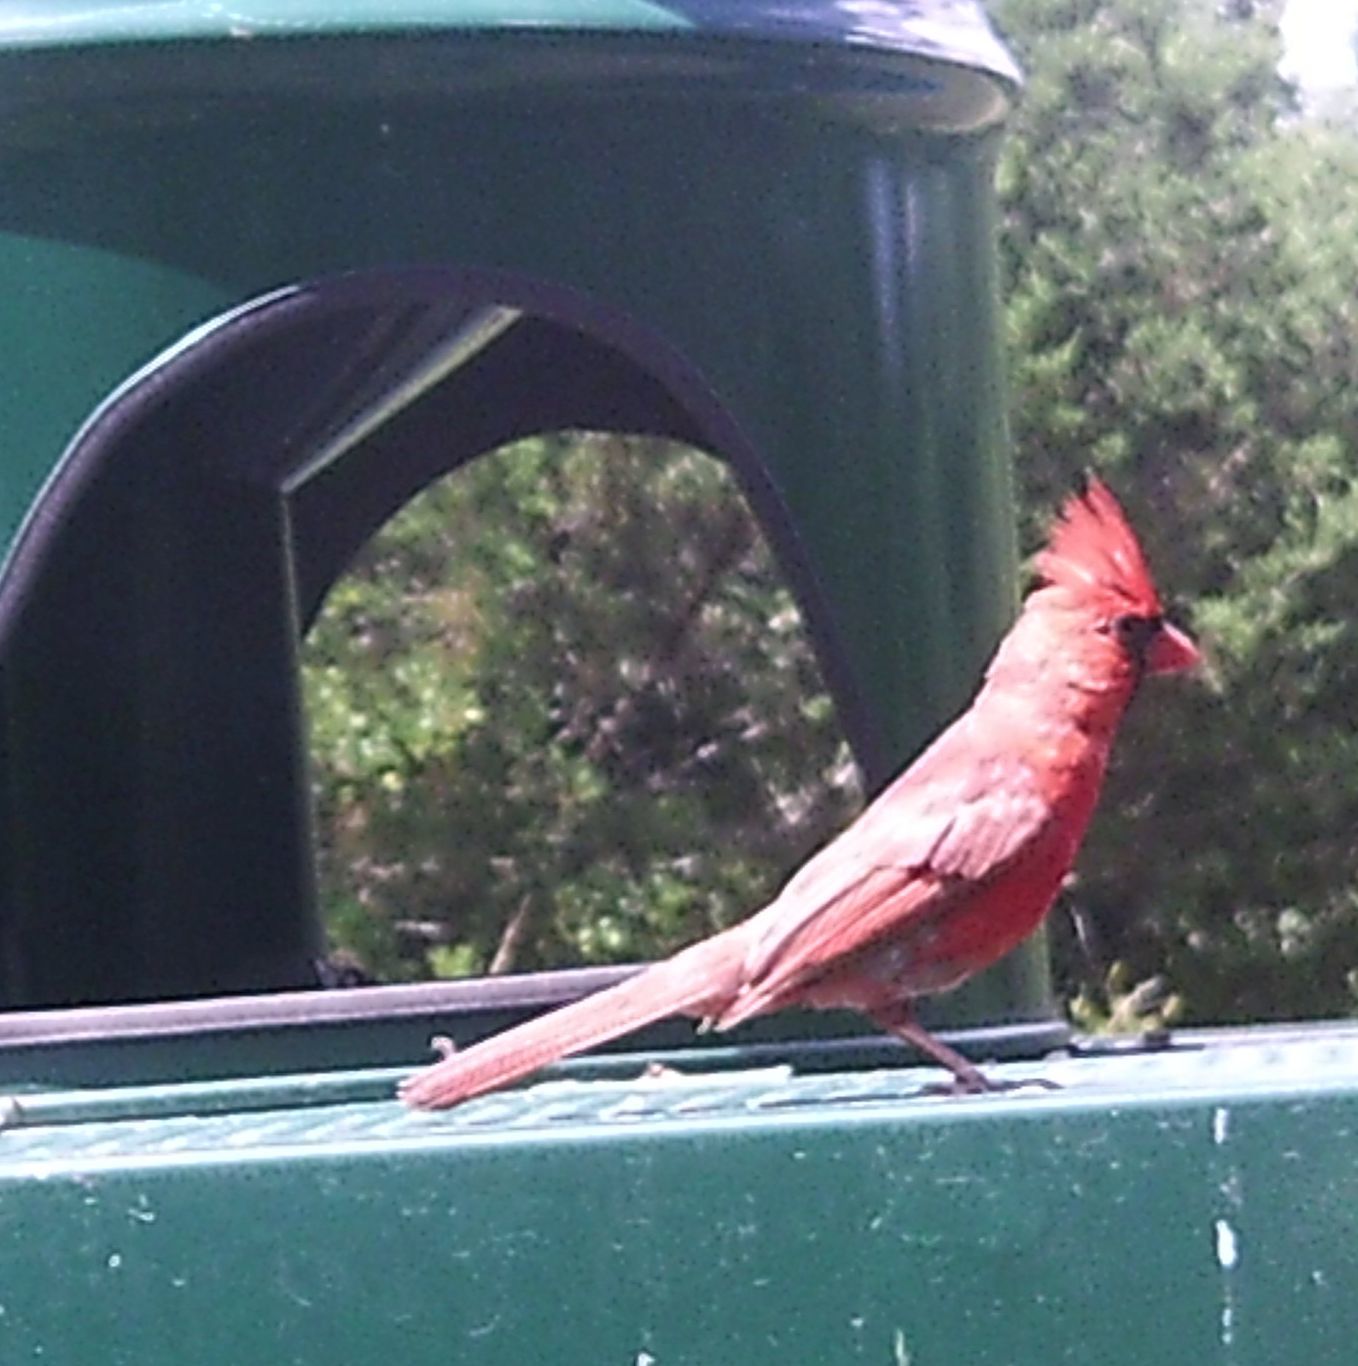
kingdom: Animalia
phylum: Chordata
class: Aves
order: Passeriformes
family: Cardinalidae
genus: Cardinalis
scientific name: Cardinalis cardinalis
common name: Northern cardinal
